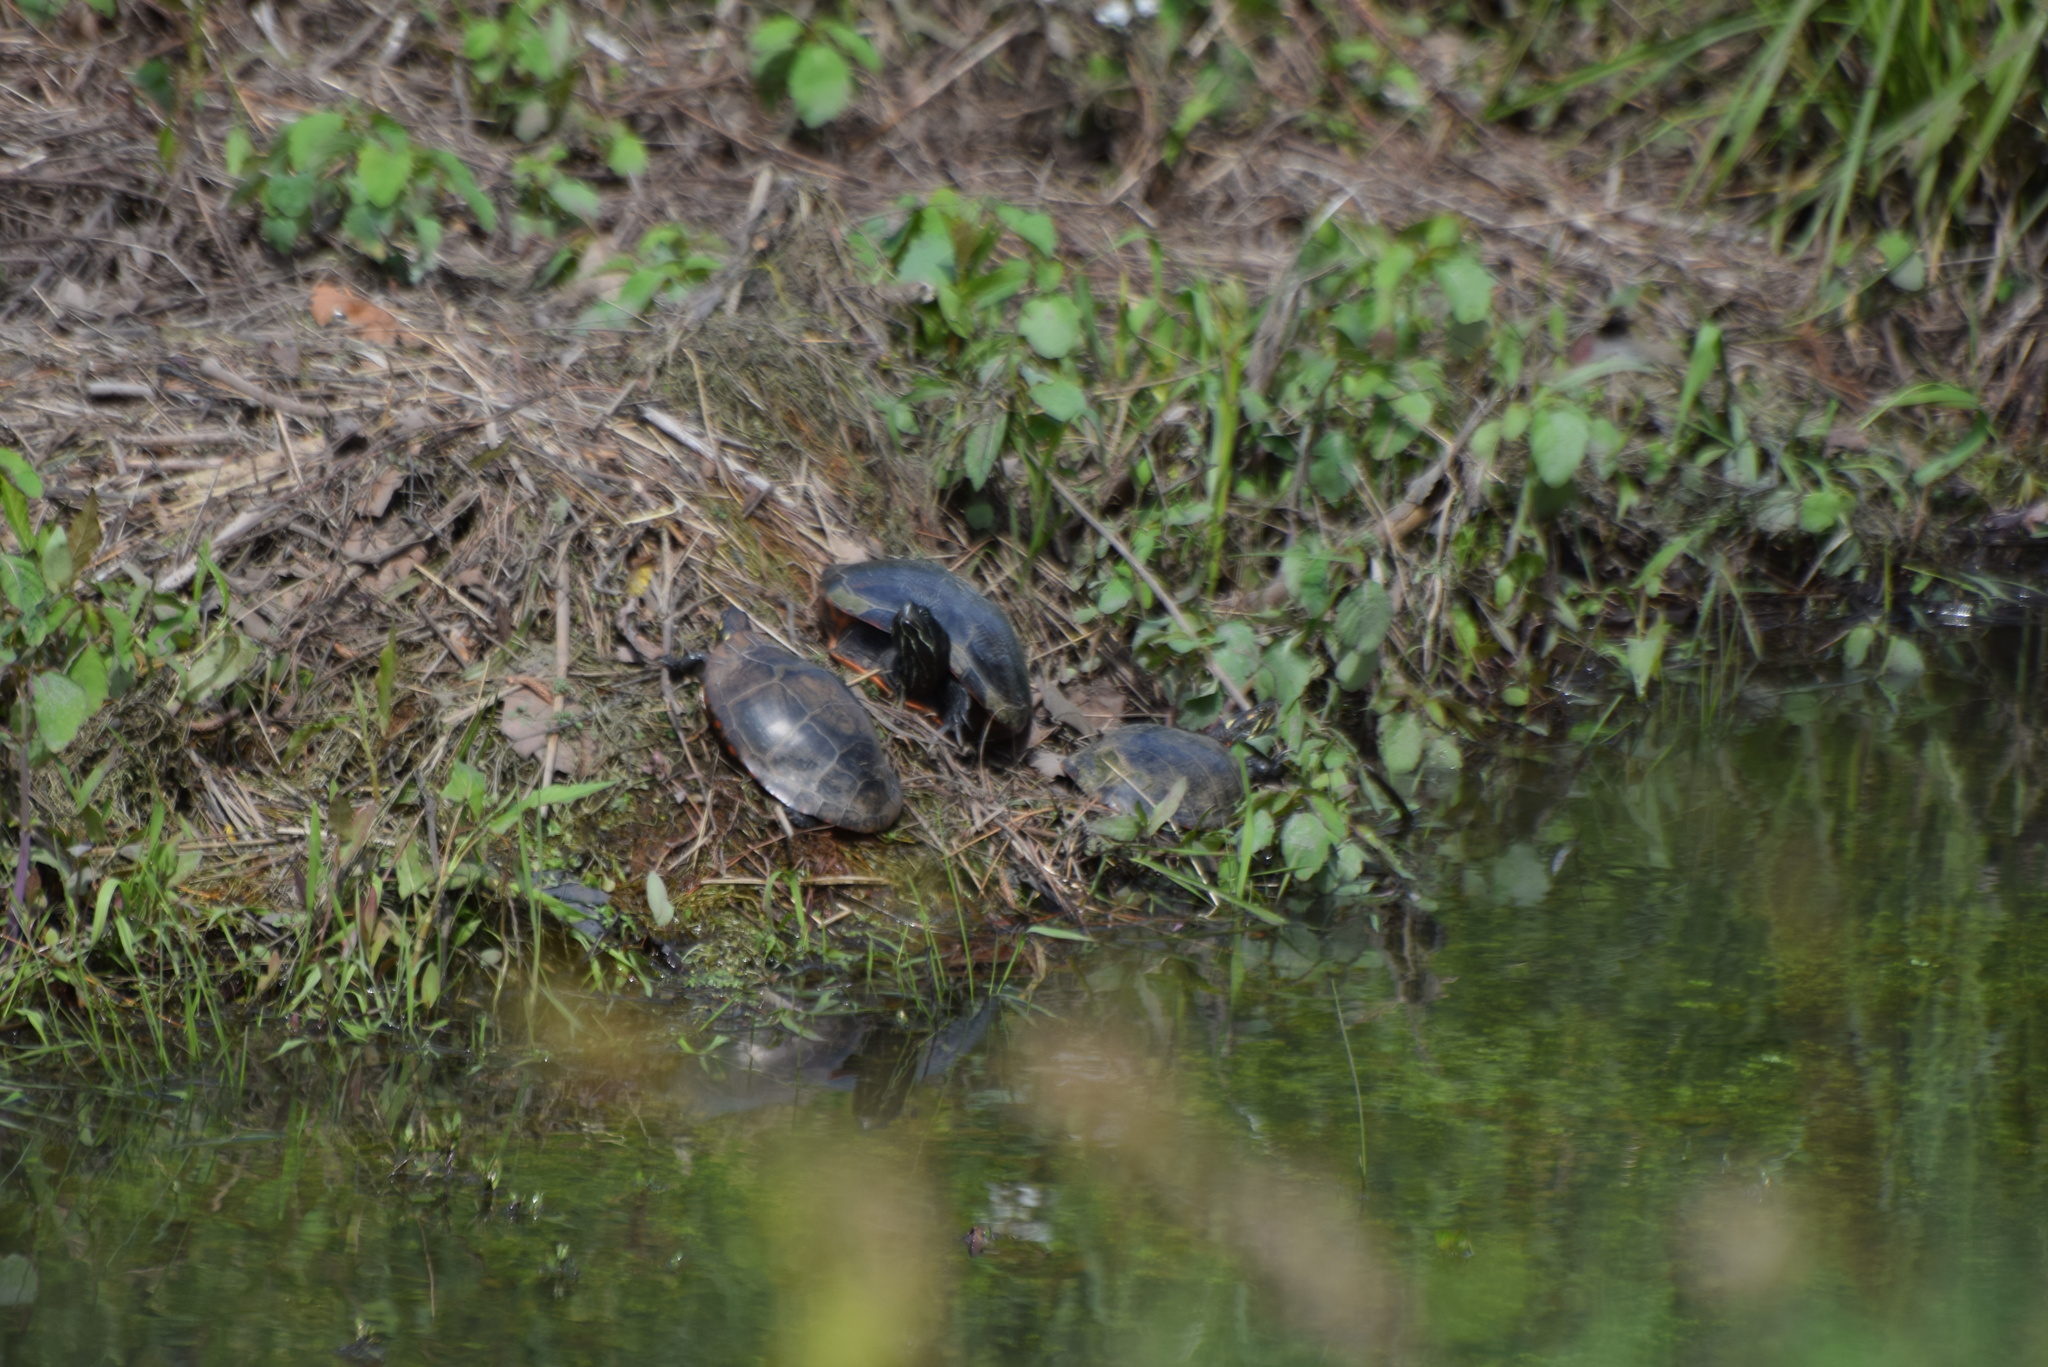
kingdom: Animalia
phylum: Chordata
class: Testudines
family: Emydidae
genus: Pseudemys
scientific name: Pseudemys rubriventris
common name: American red-bellied turtle
